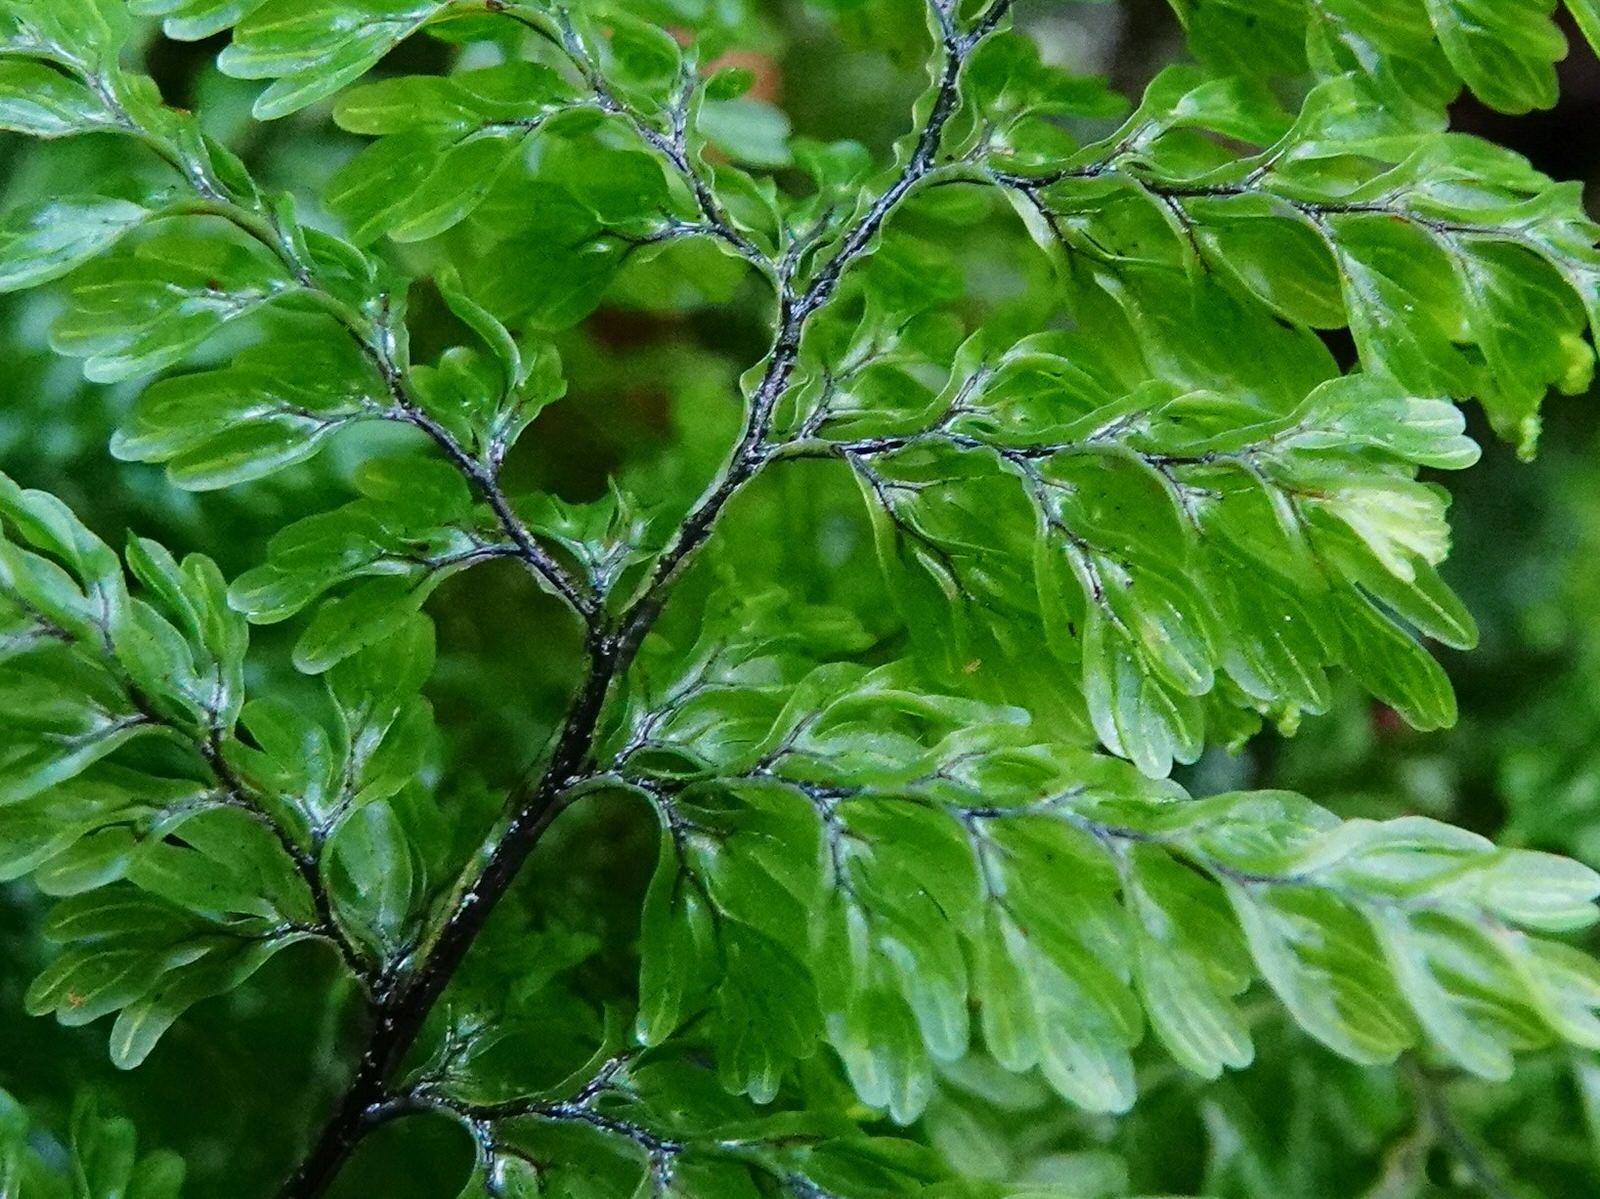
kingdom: Plantae
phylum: Tracheophyta
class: Polypodiopsida
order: Hymenophyllales
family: Hymenophyllaceae
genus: Hymenophyllum
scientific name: Hymenophyllum sanguinolentum
